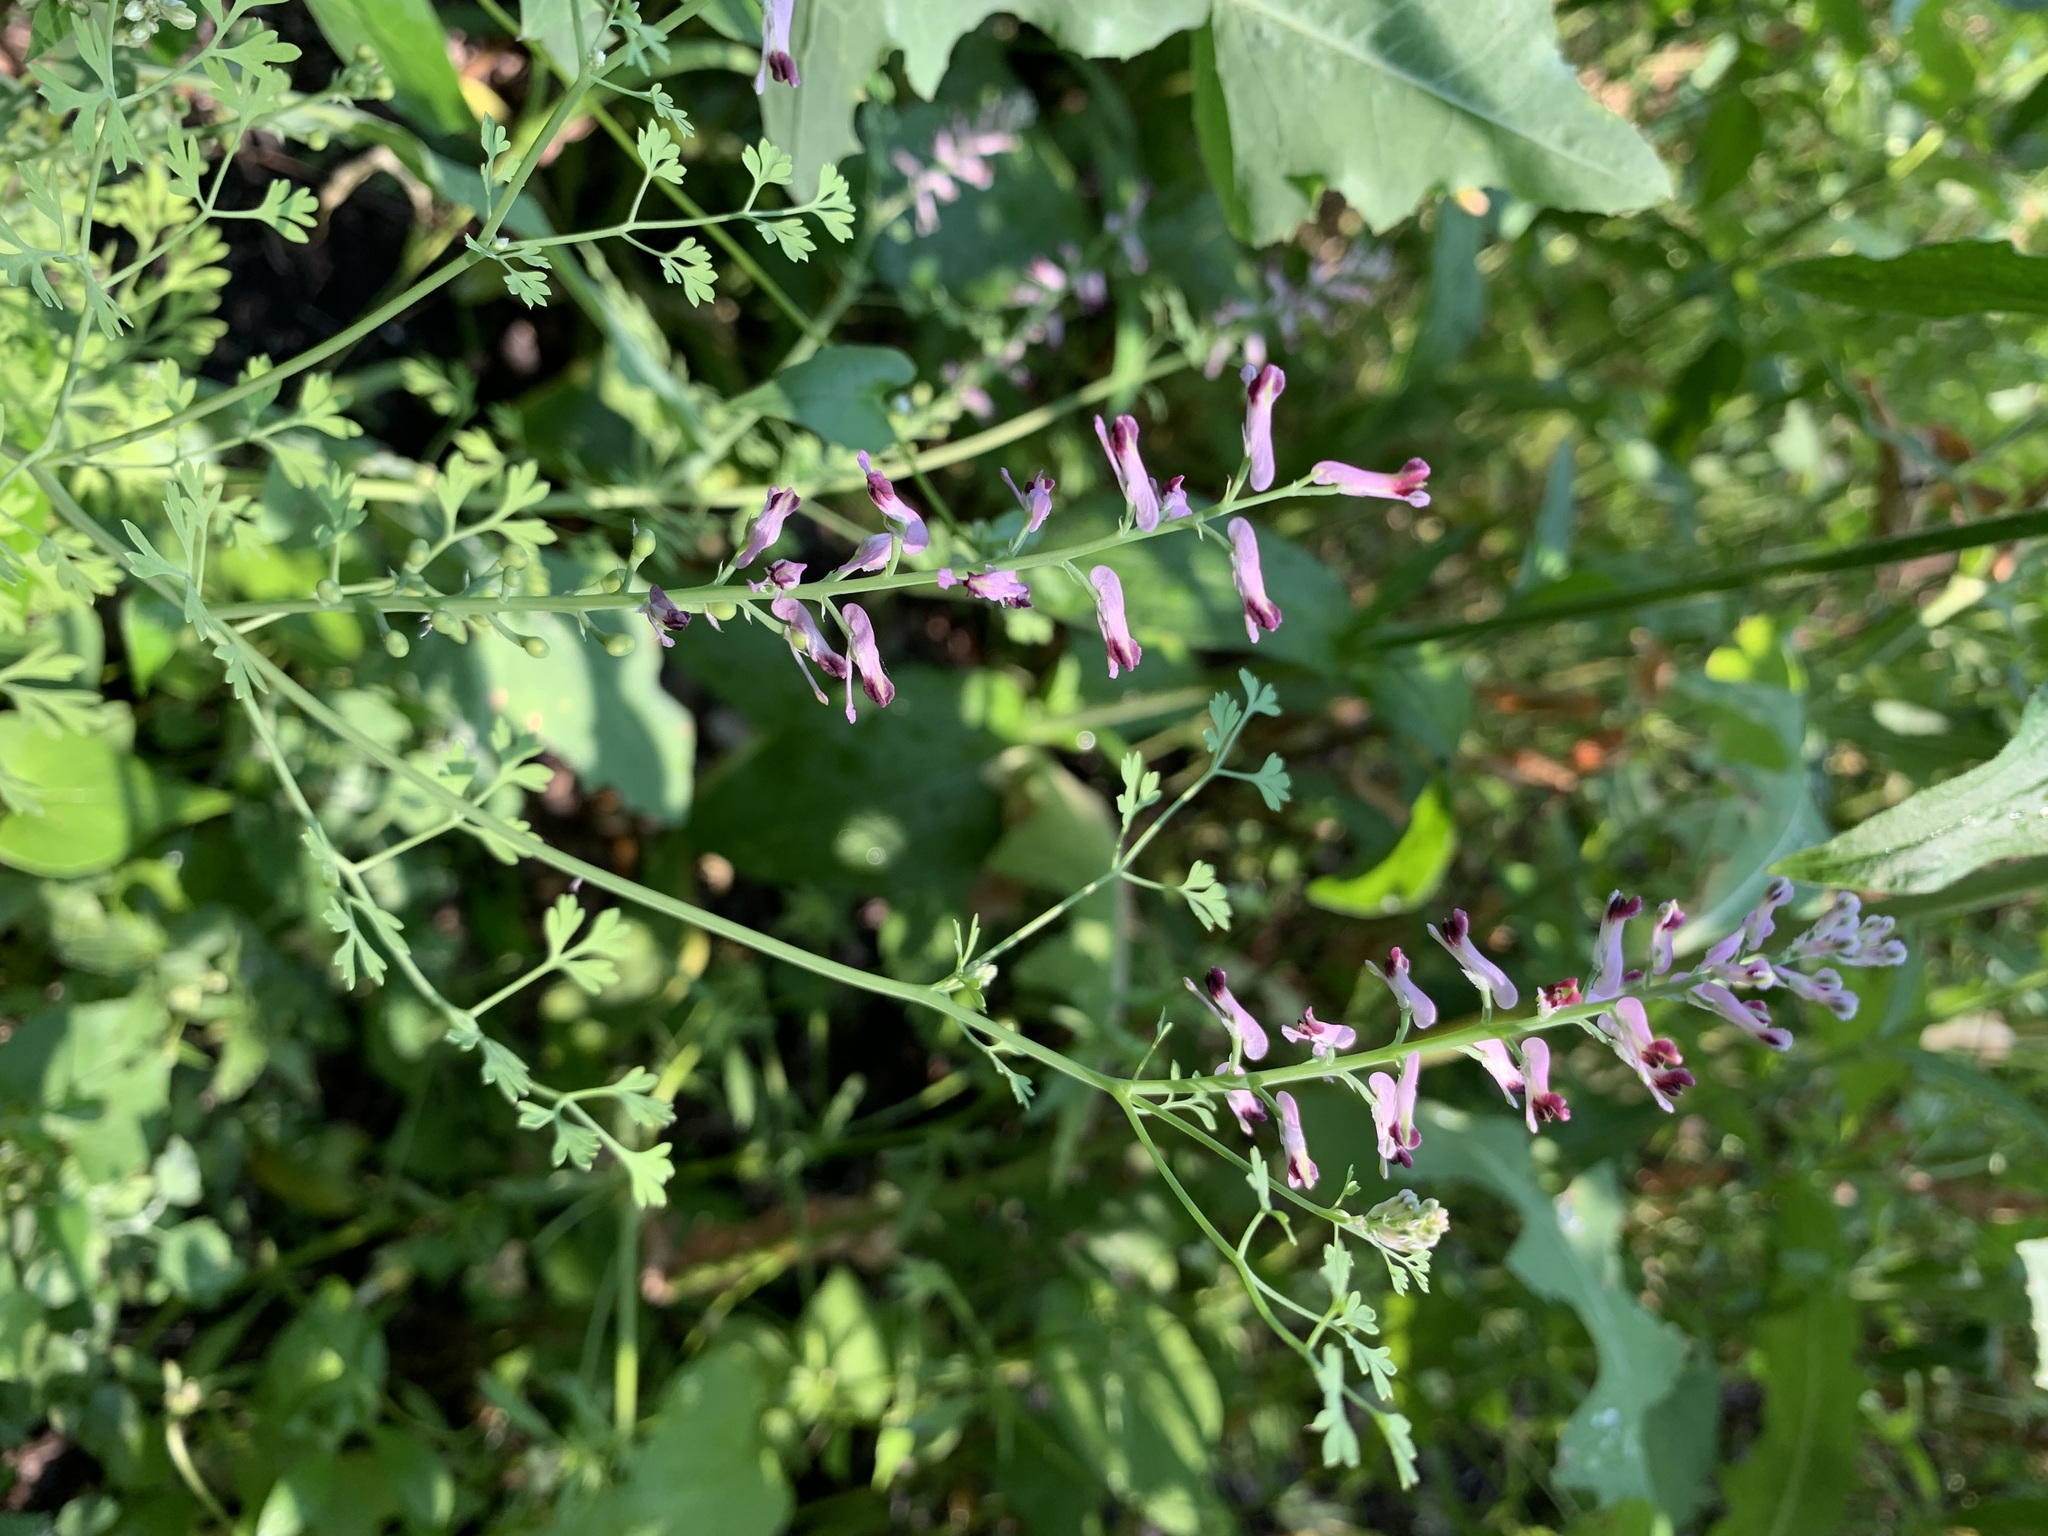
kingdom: Plantae
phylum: Tracheophyta
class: Magnoliopsida
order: Ranunculales
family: Papaveraceae
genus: Fumaria
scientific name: Fumaria officinalis
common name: Common fumitory
